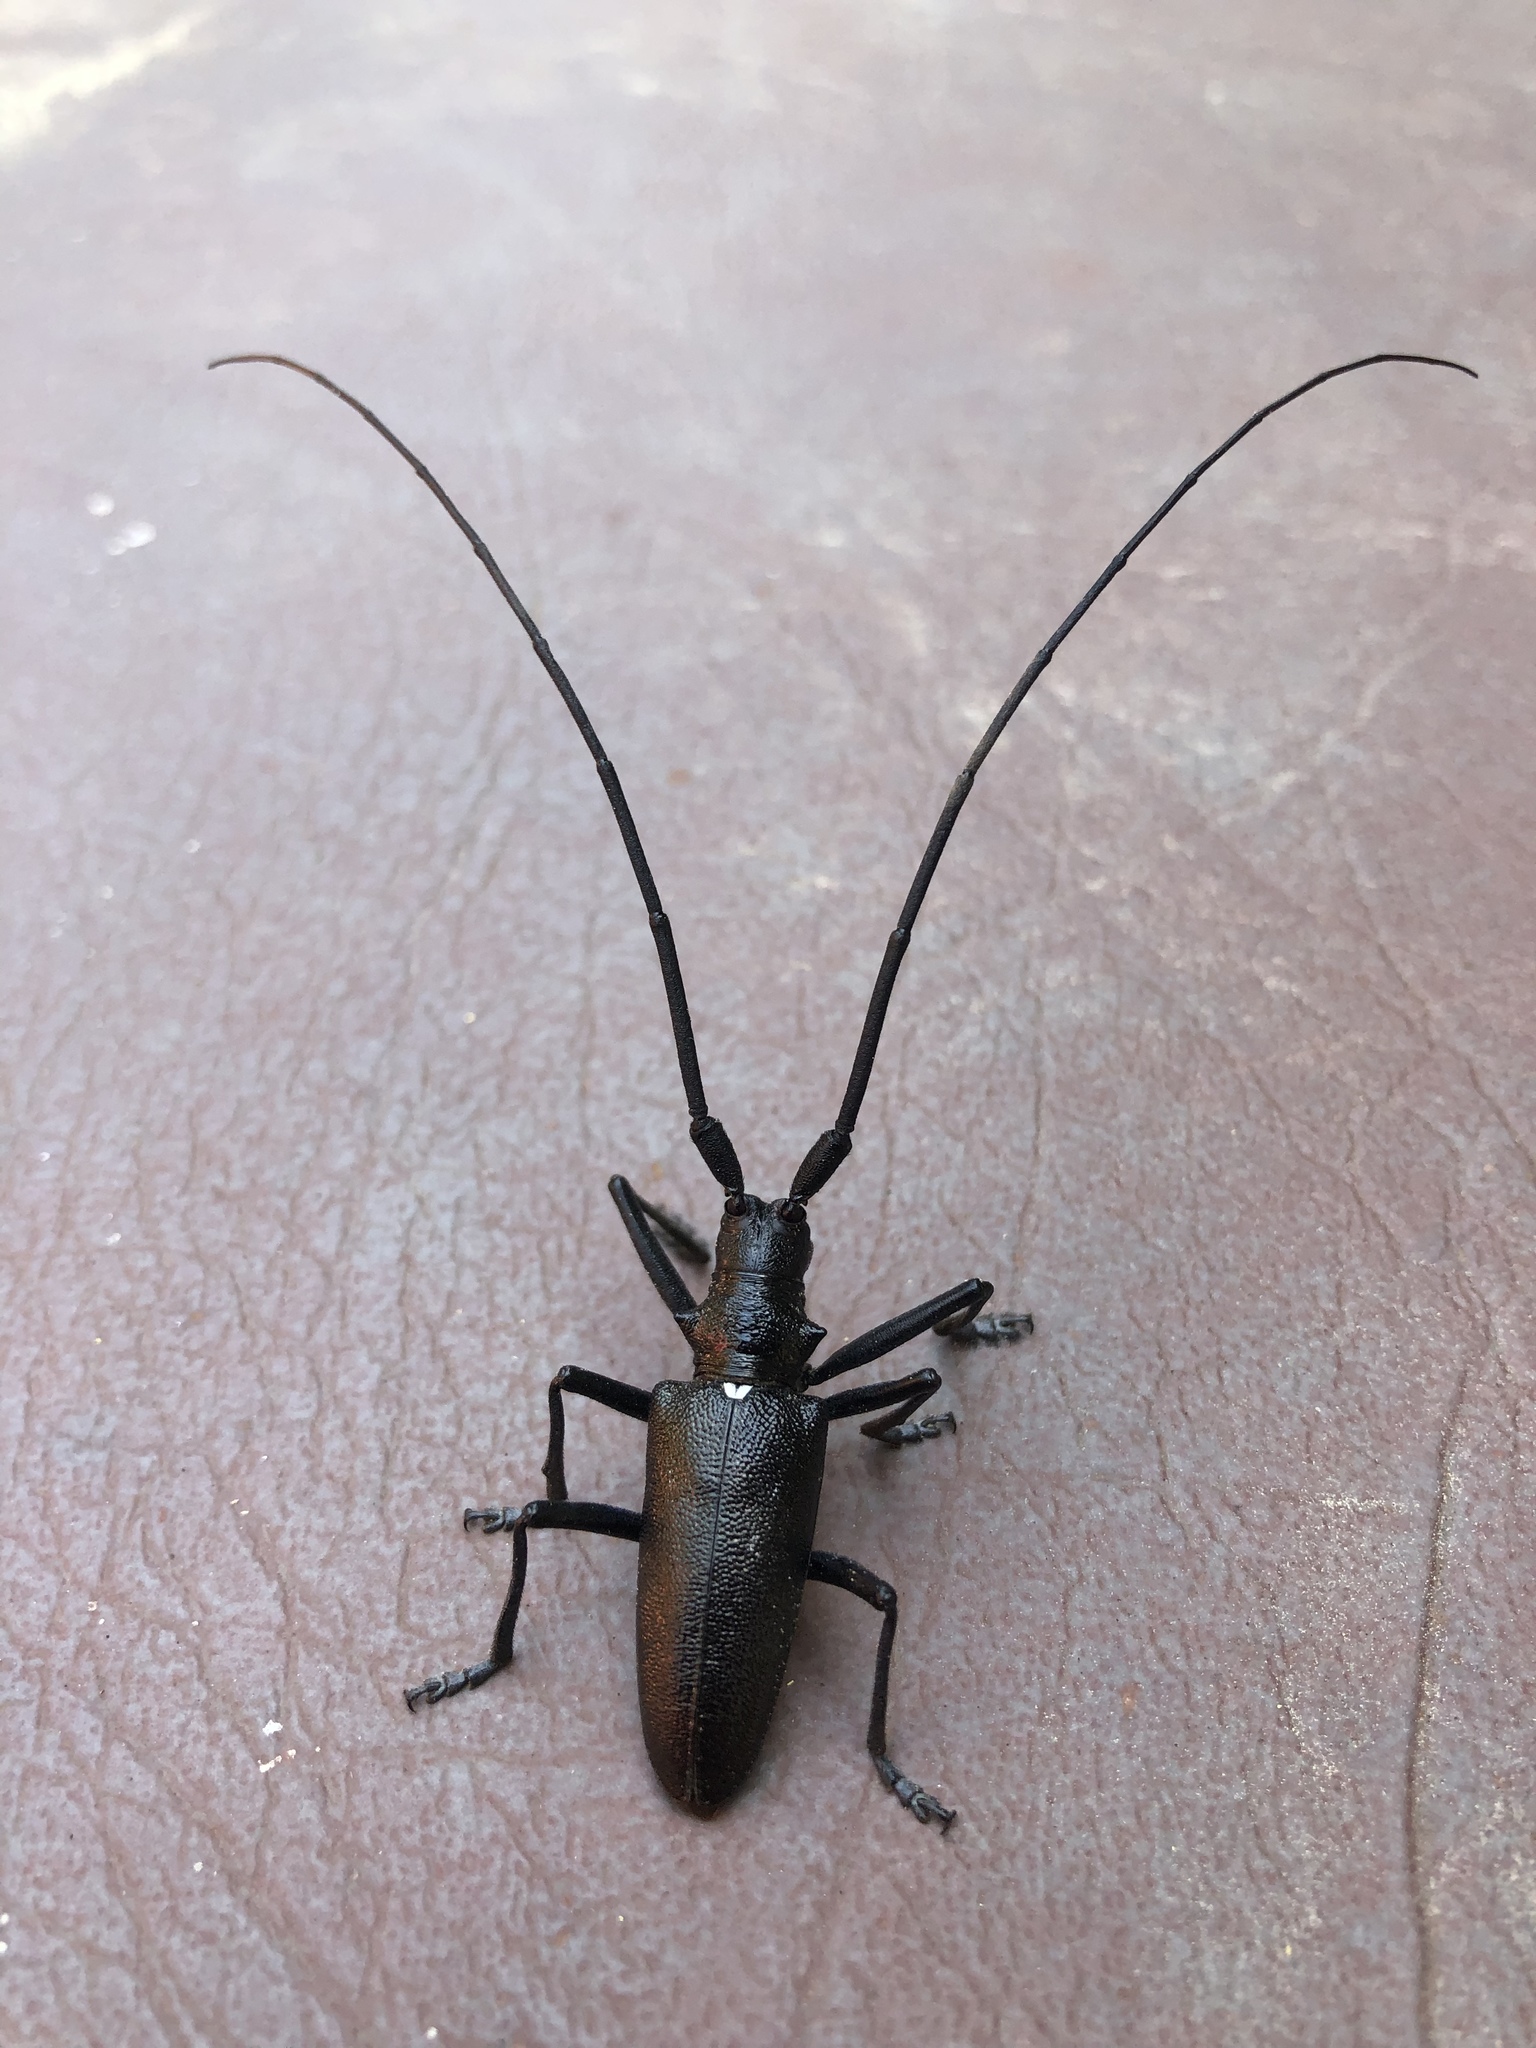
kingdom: Animalia
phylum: Arthropoda
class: Insecta
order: Coleoptera
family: Cerambycidae
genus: Monochamus
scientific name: Monochamus scutellatus
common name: White-spotted sawyer beetle
